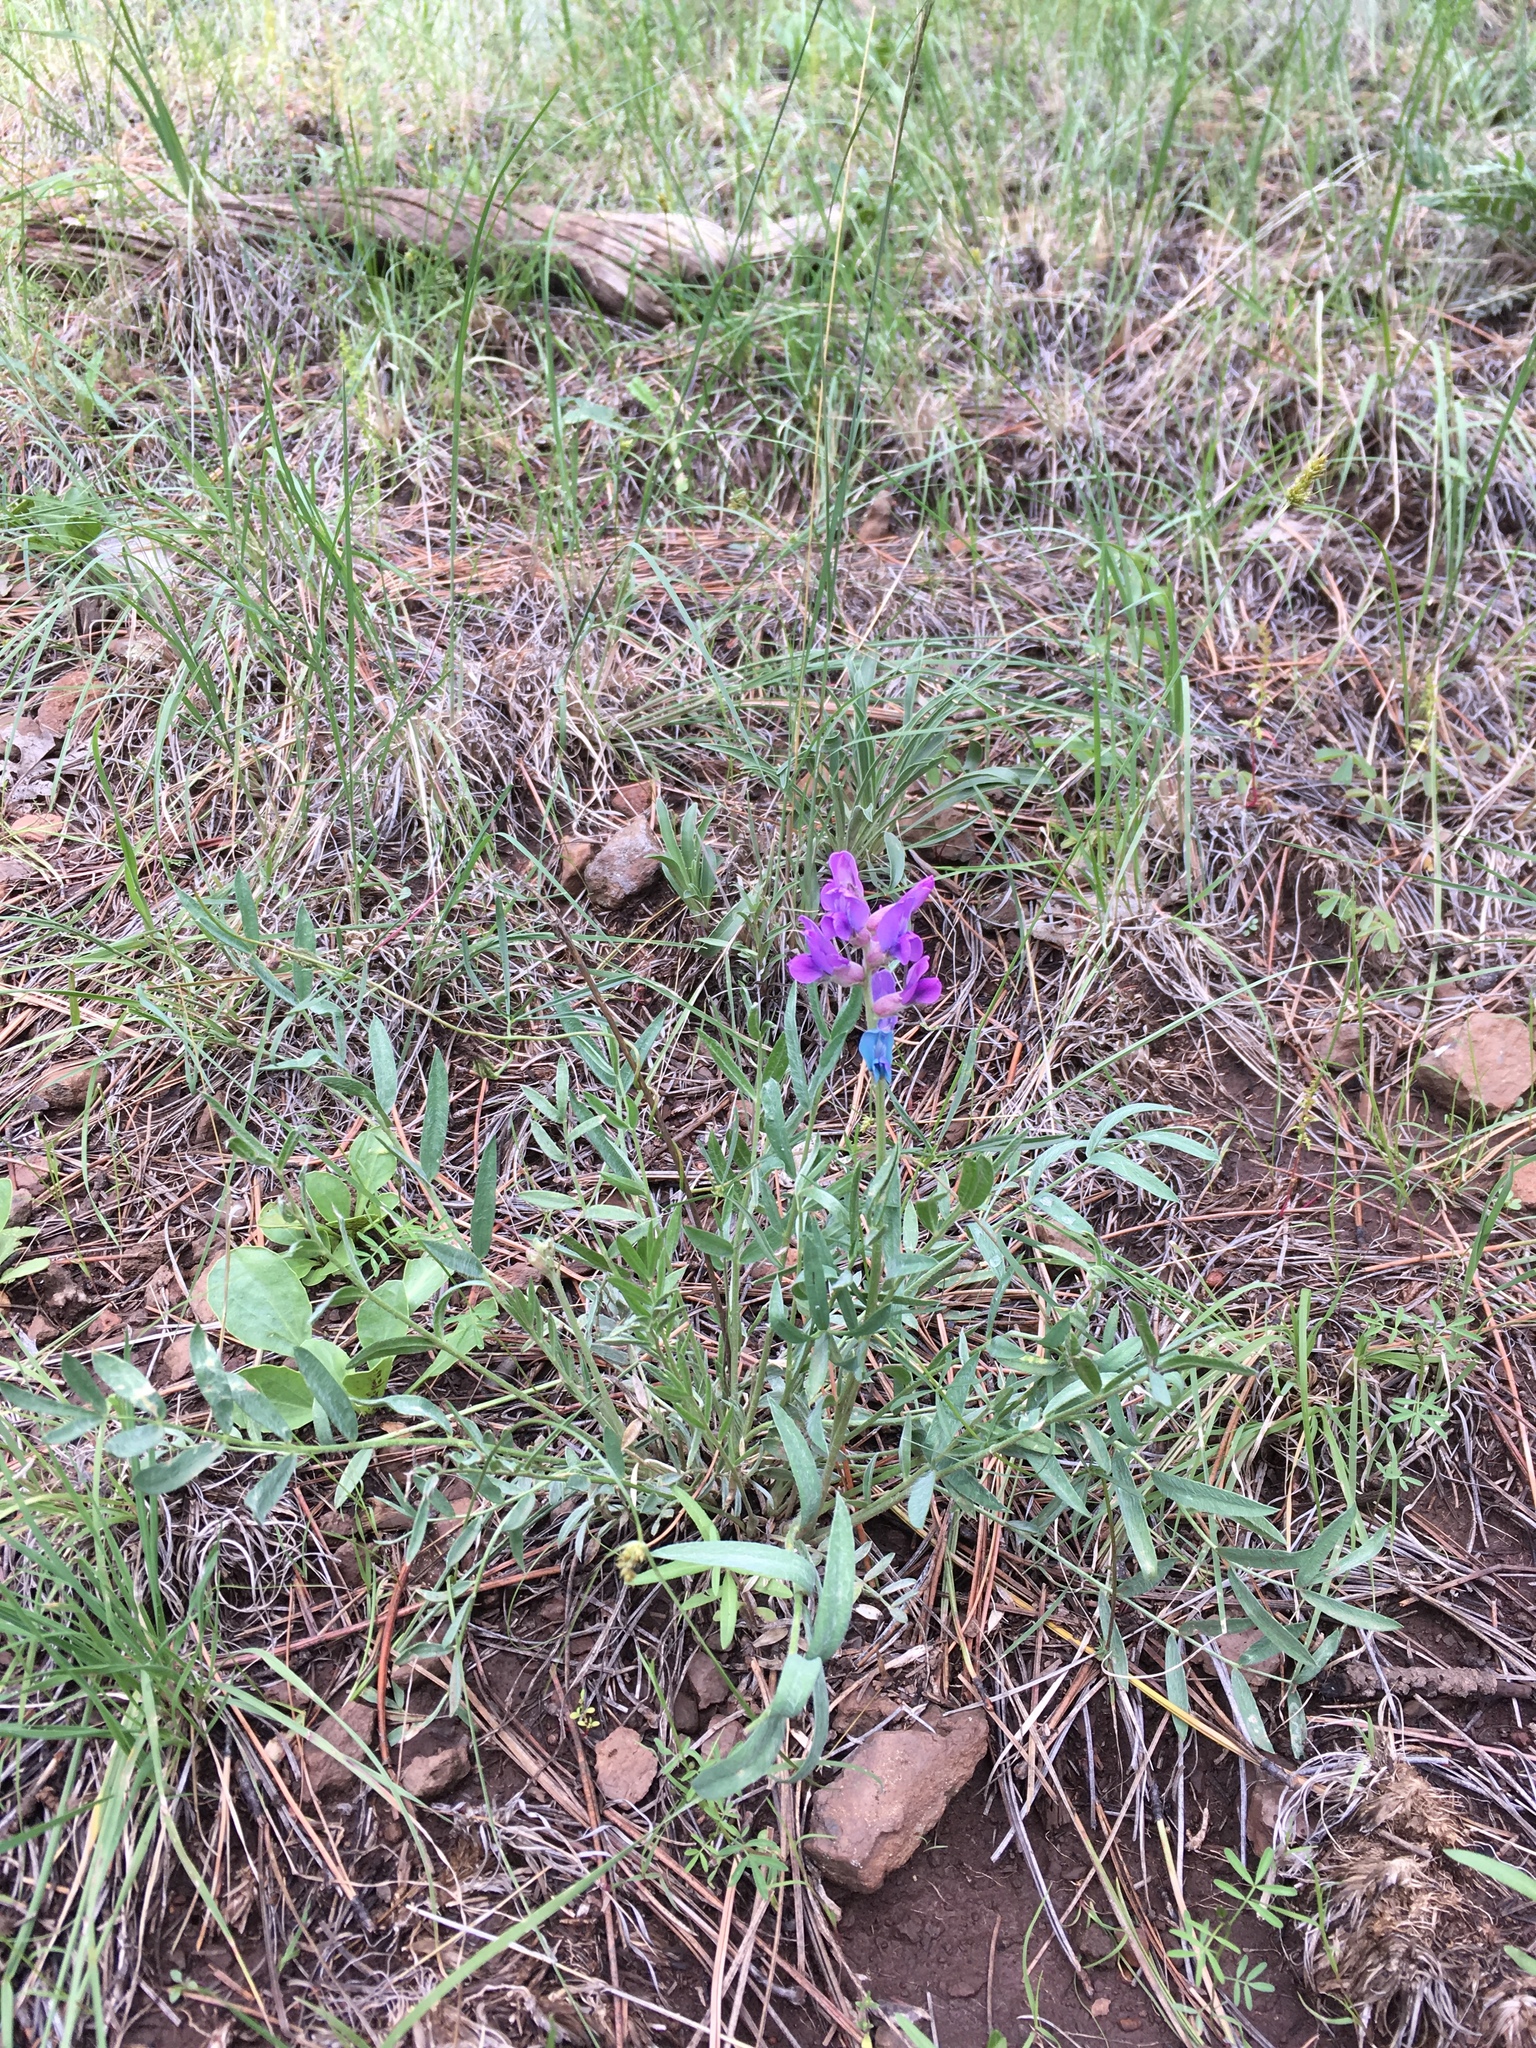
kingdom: Plantae
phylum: Tracheophyta
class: Magnoliopsida
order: Fabales
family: Fabaceae
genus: Oxytropis
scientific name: Oxytropis lambertii
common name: Purple locoweed
